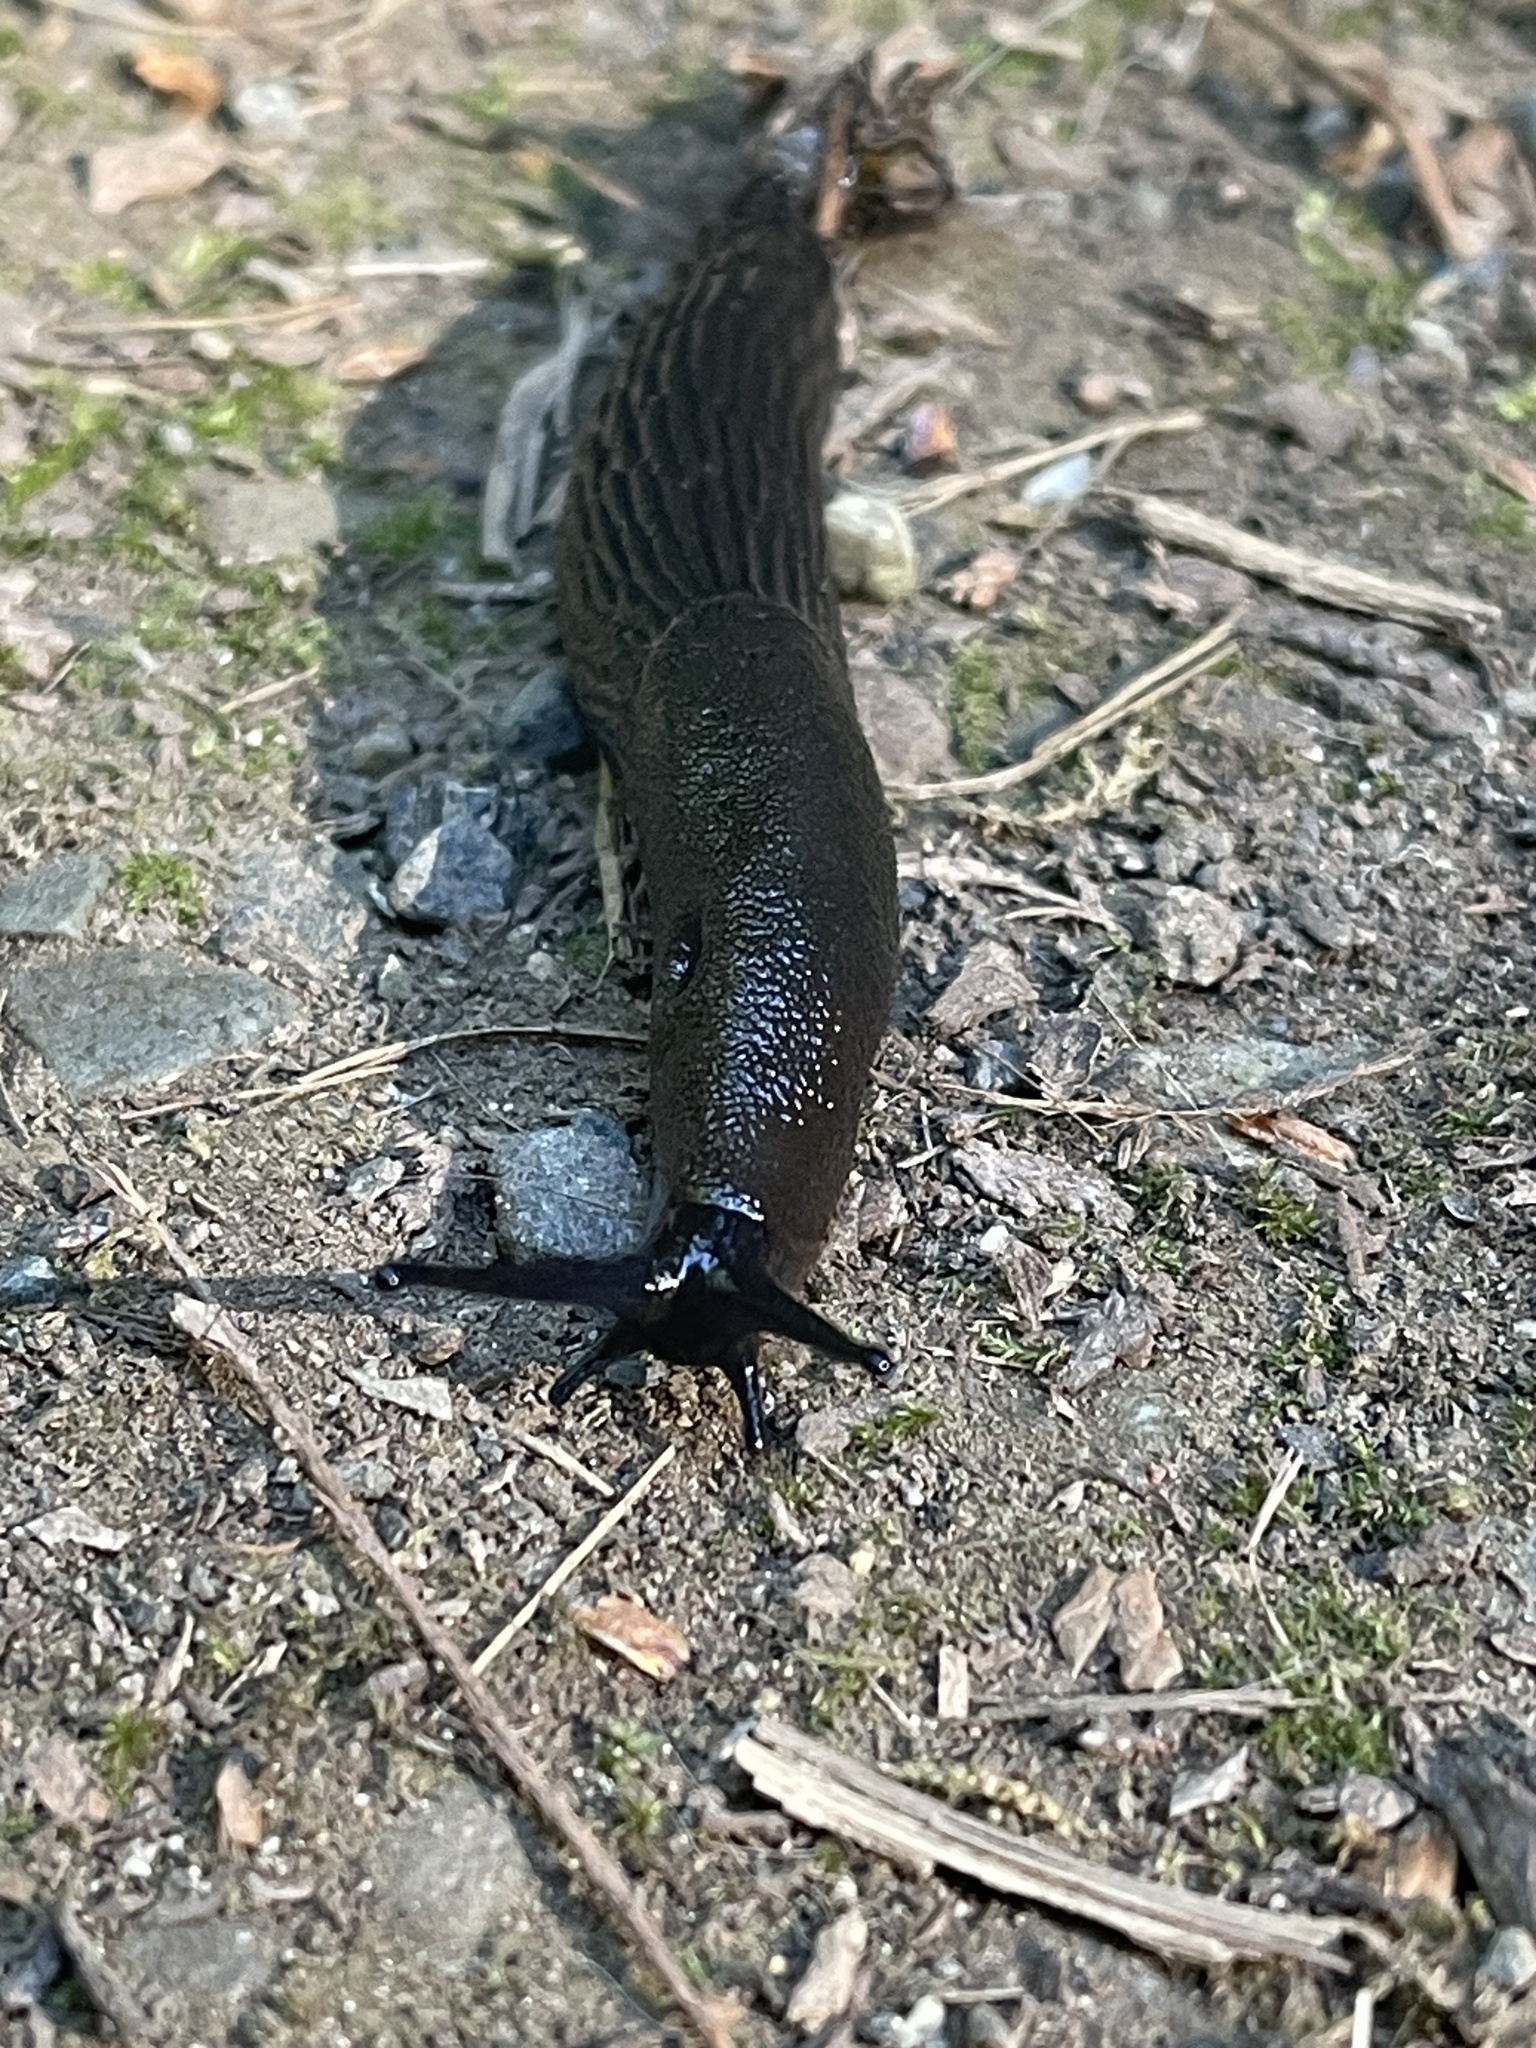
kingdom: Animalia
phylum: Mollusca
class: Gastropoda
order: Stylommatophora
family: Arionidae
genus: Arion
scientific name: Arion ater
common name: Black arion
